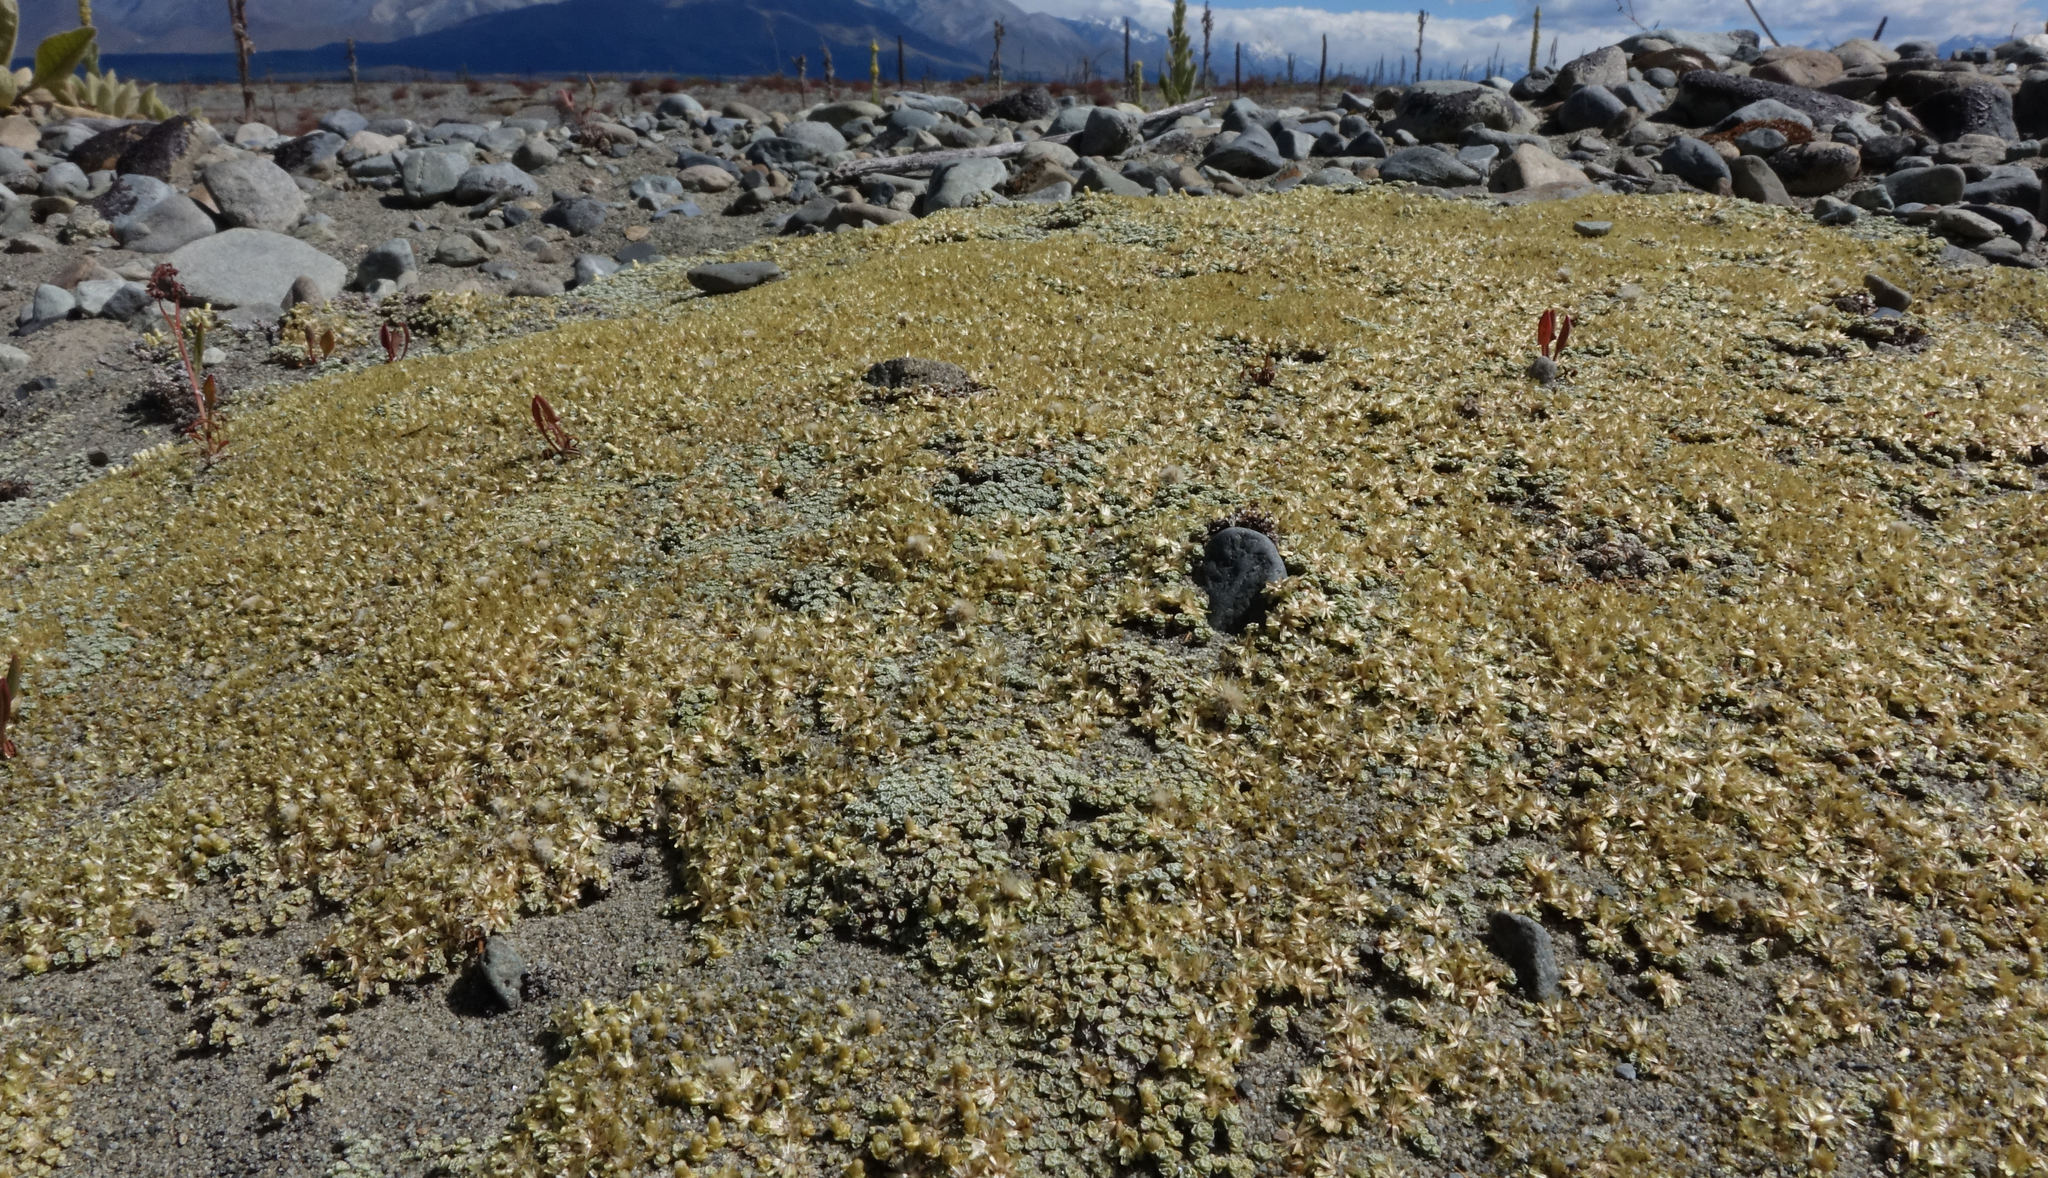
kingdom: Plantae
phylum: Tracheophyta
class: Magnoliopsida
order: Asterales
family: Asteraceae
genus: Raoulia
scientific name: Raoulia australis
